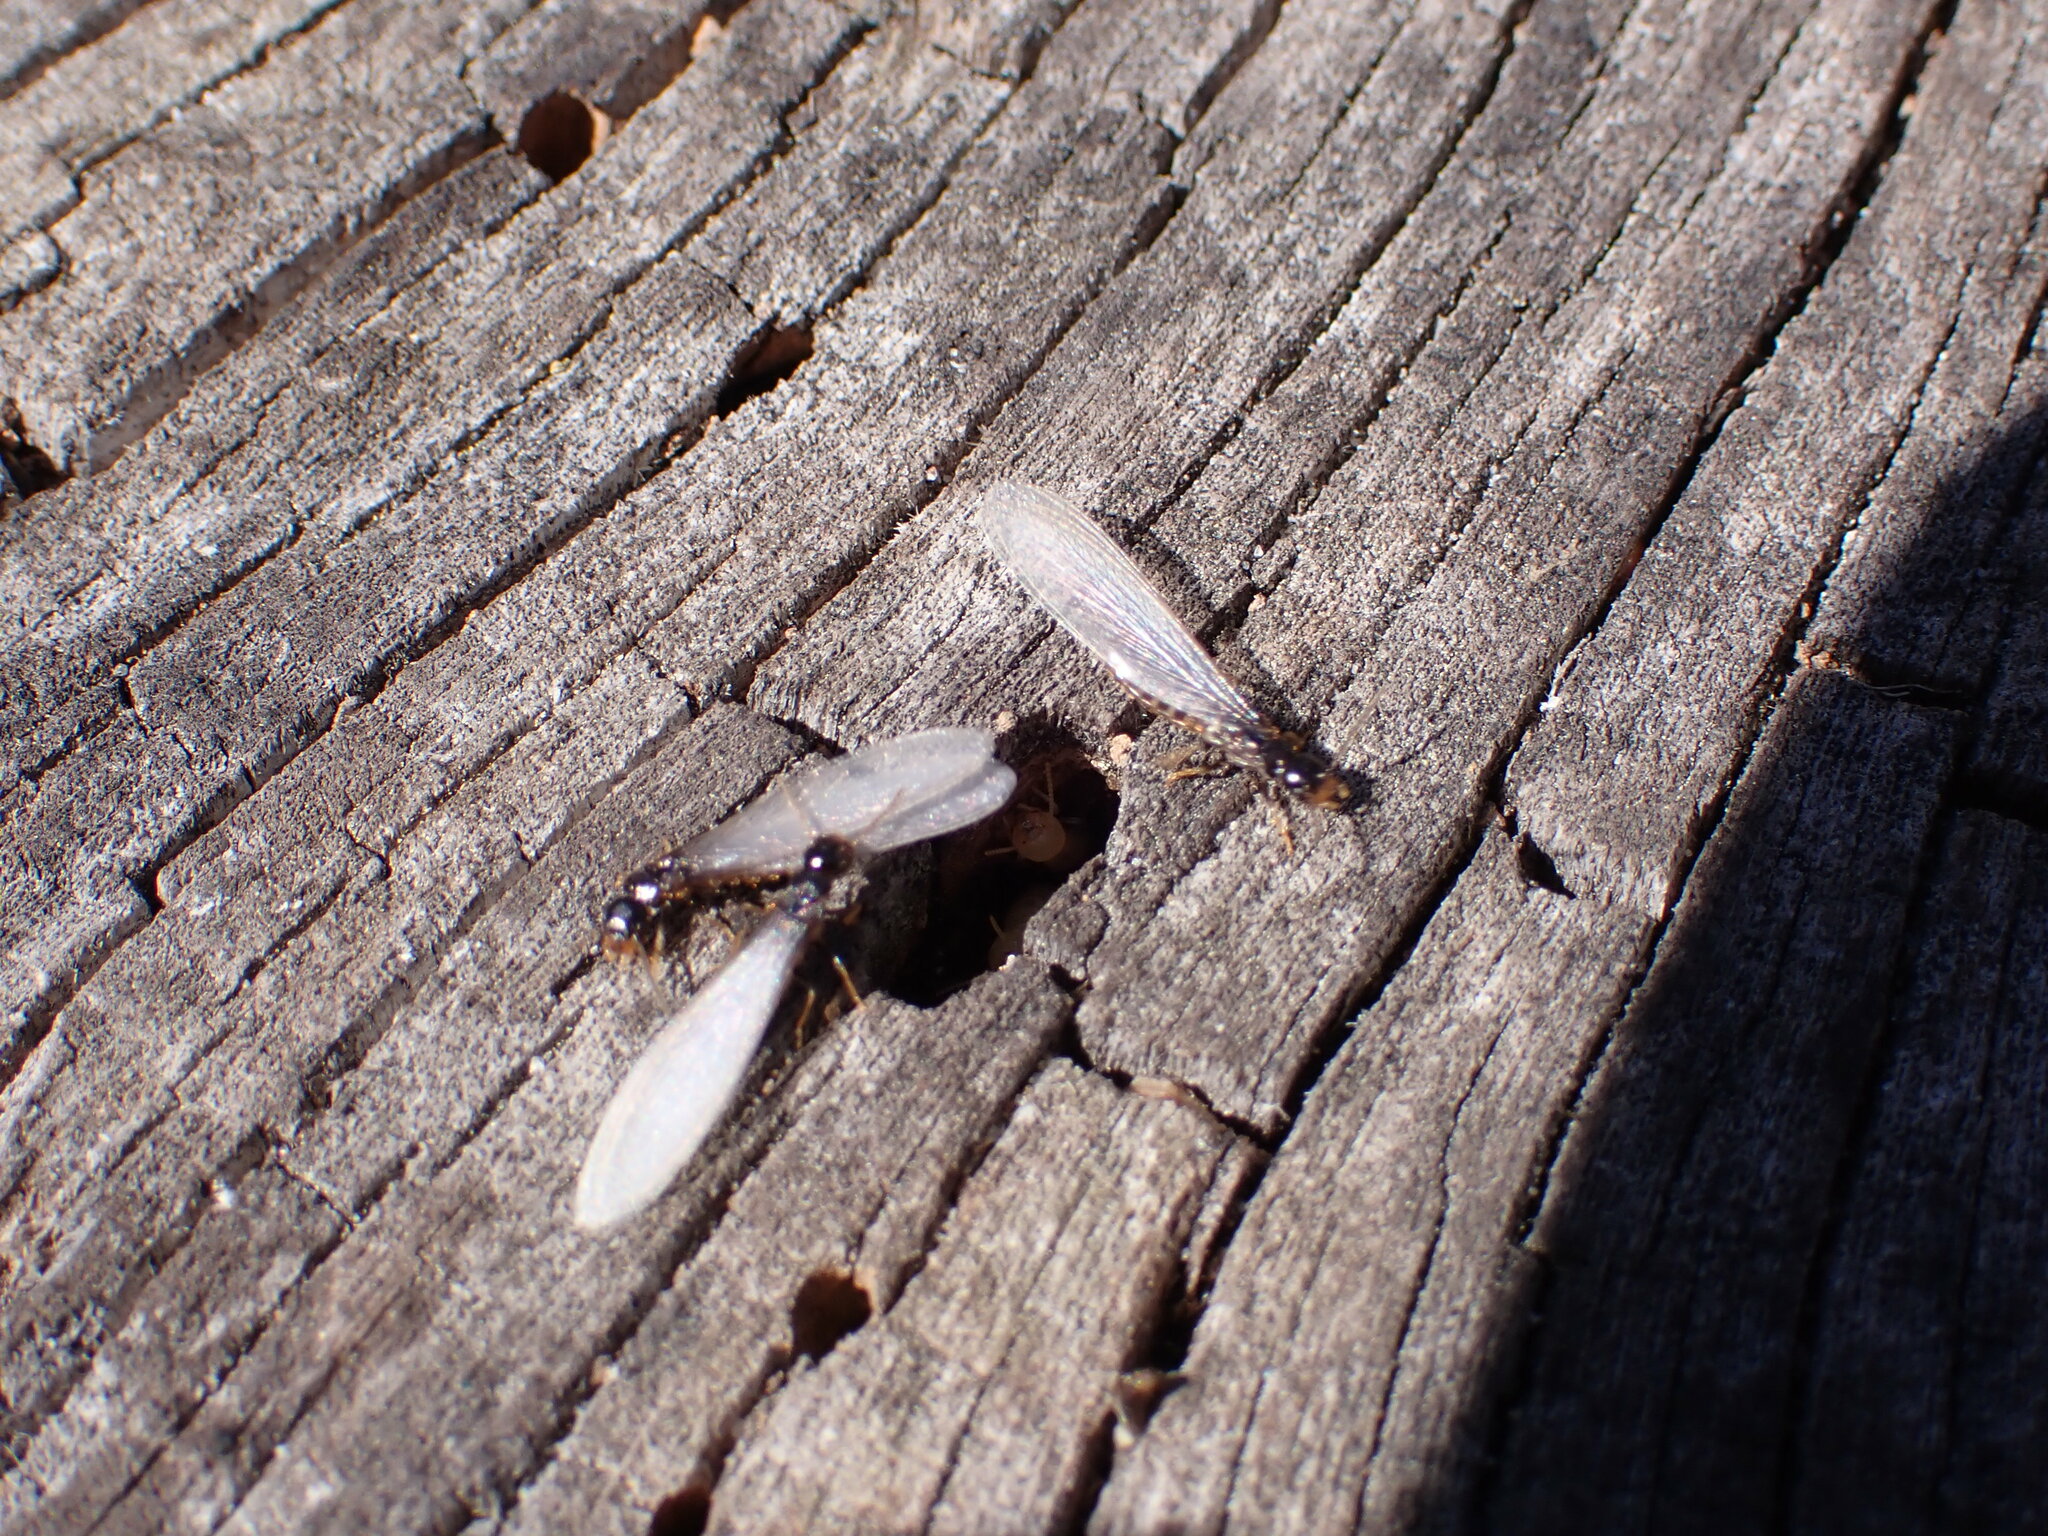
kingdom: Animalia
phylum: Arthropoda
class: Insecta
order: Blattodea
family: Rhinotermitidae
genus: Reticulitermes
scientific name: Reticulitermes flavipes
